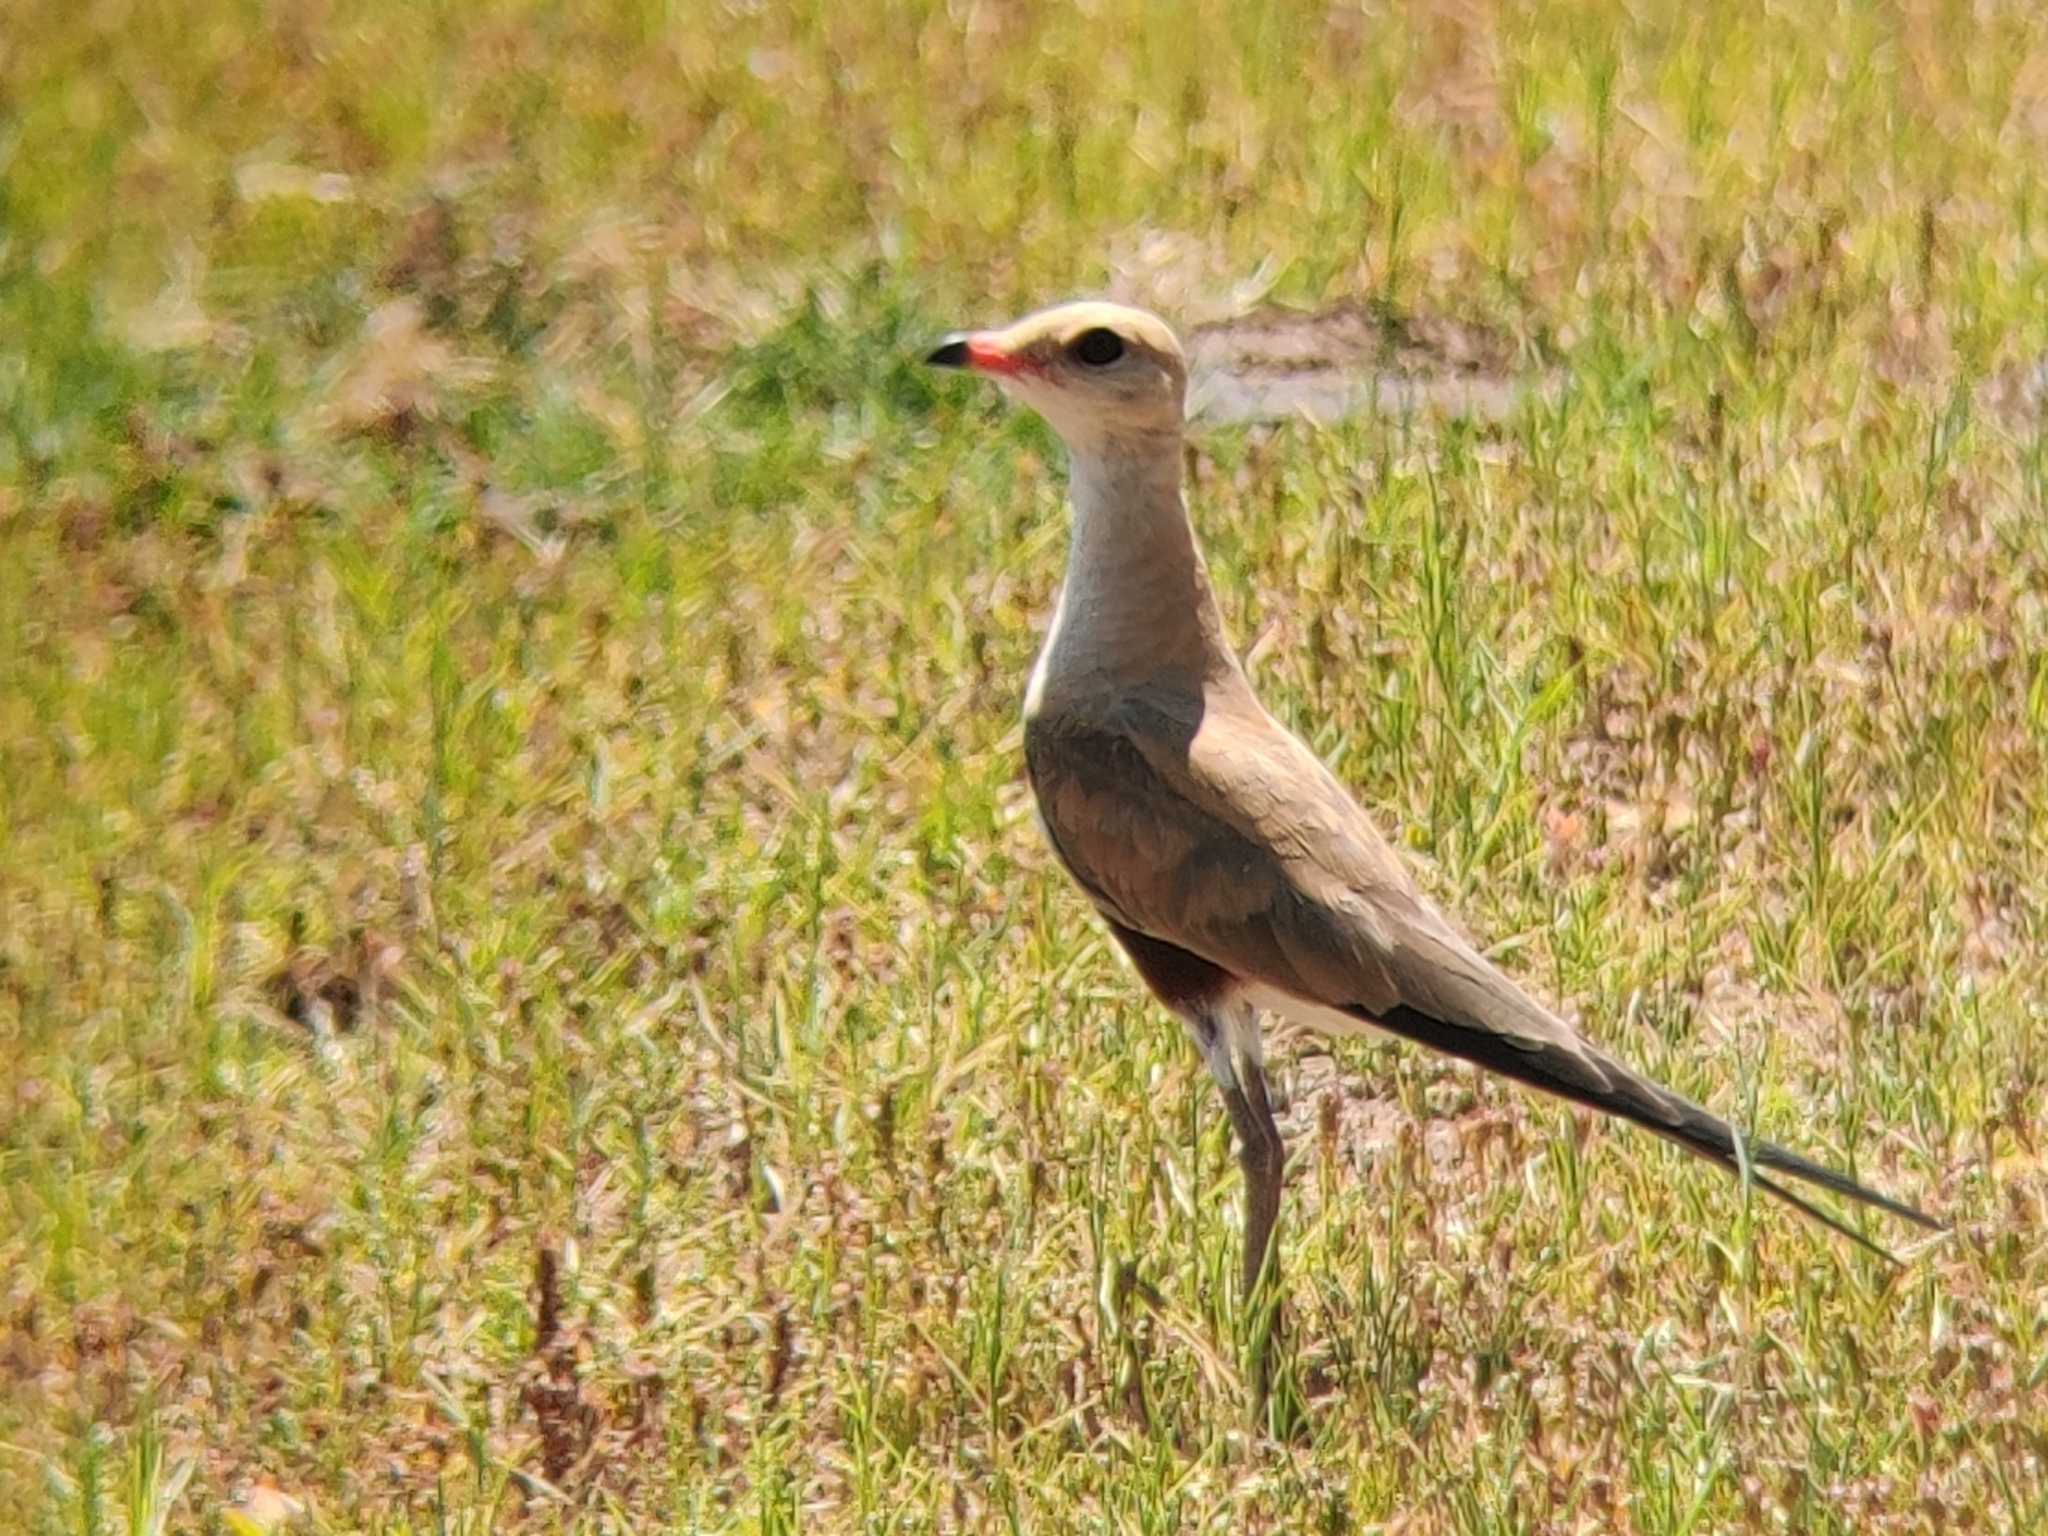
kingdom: Animalia
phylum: Chordata
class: Aves
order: Charadriiformes
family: Glareolidae
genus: Stiltia
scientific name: Stiltia isabella
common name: Australian pratincole
